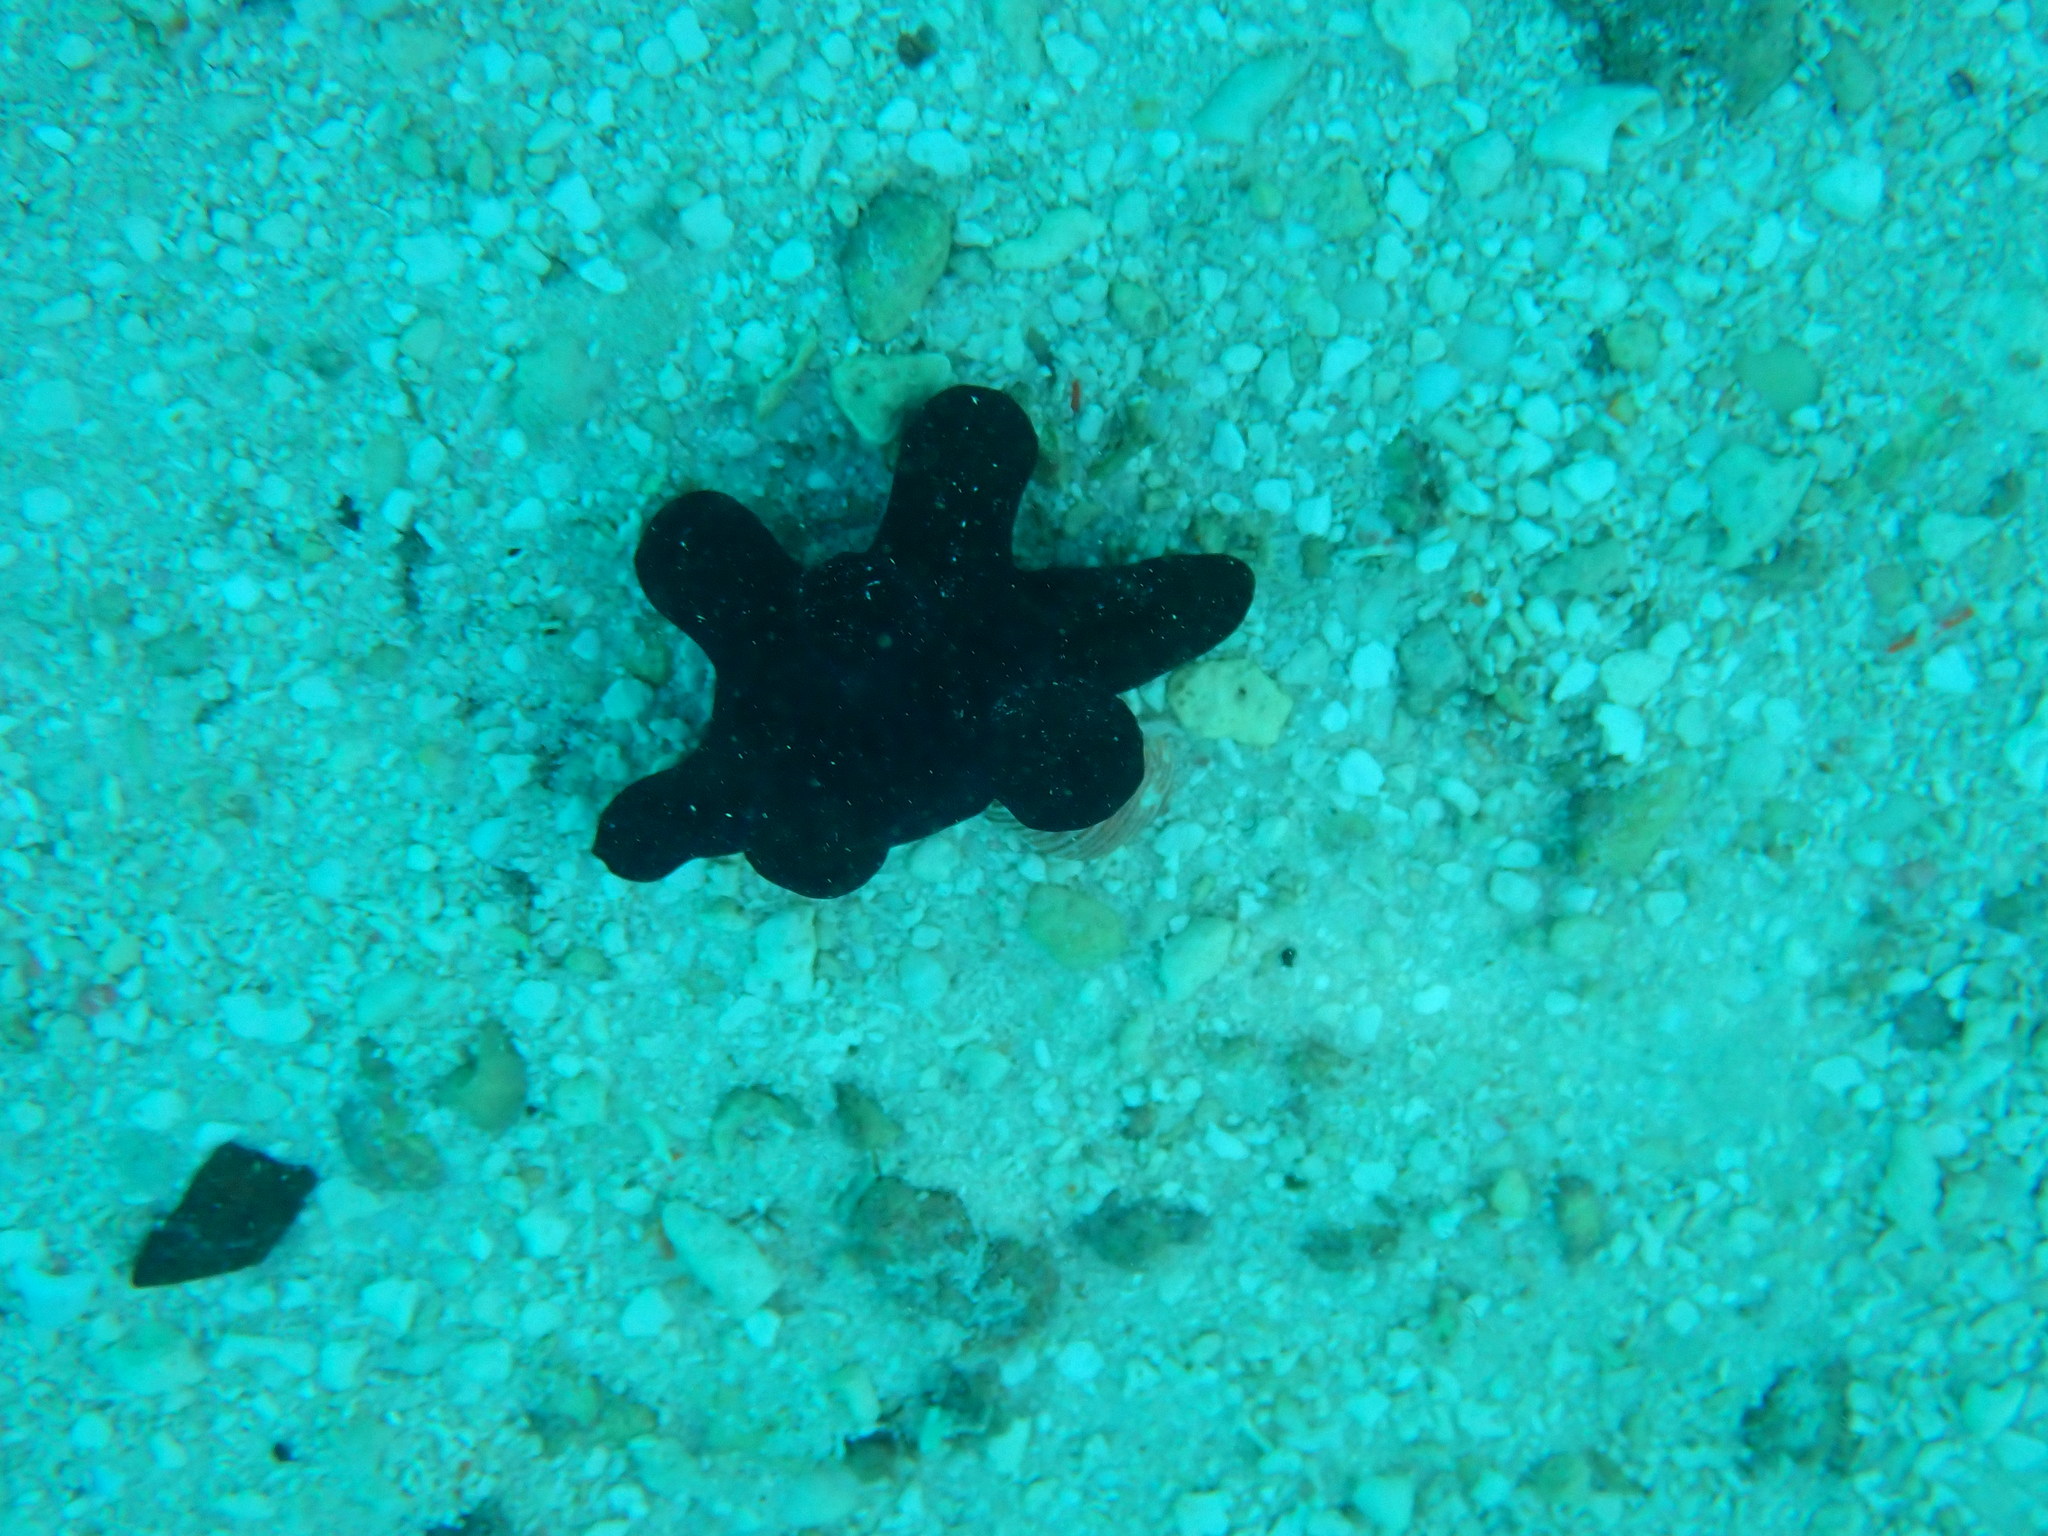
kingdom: Animalia
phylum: Mollusca
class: Gastropoda
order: Littorinimorpha
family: Velutinidae
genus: Coriocella
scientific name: Coriocella hibyae
